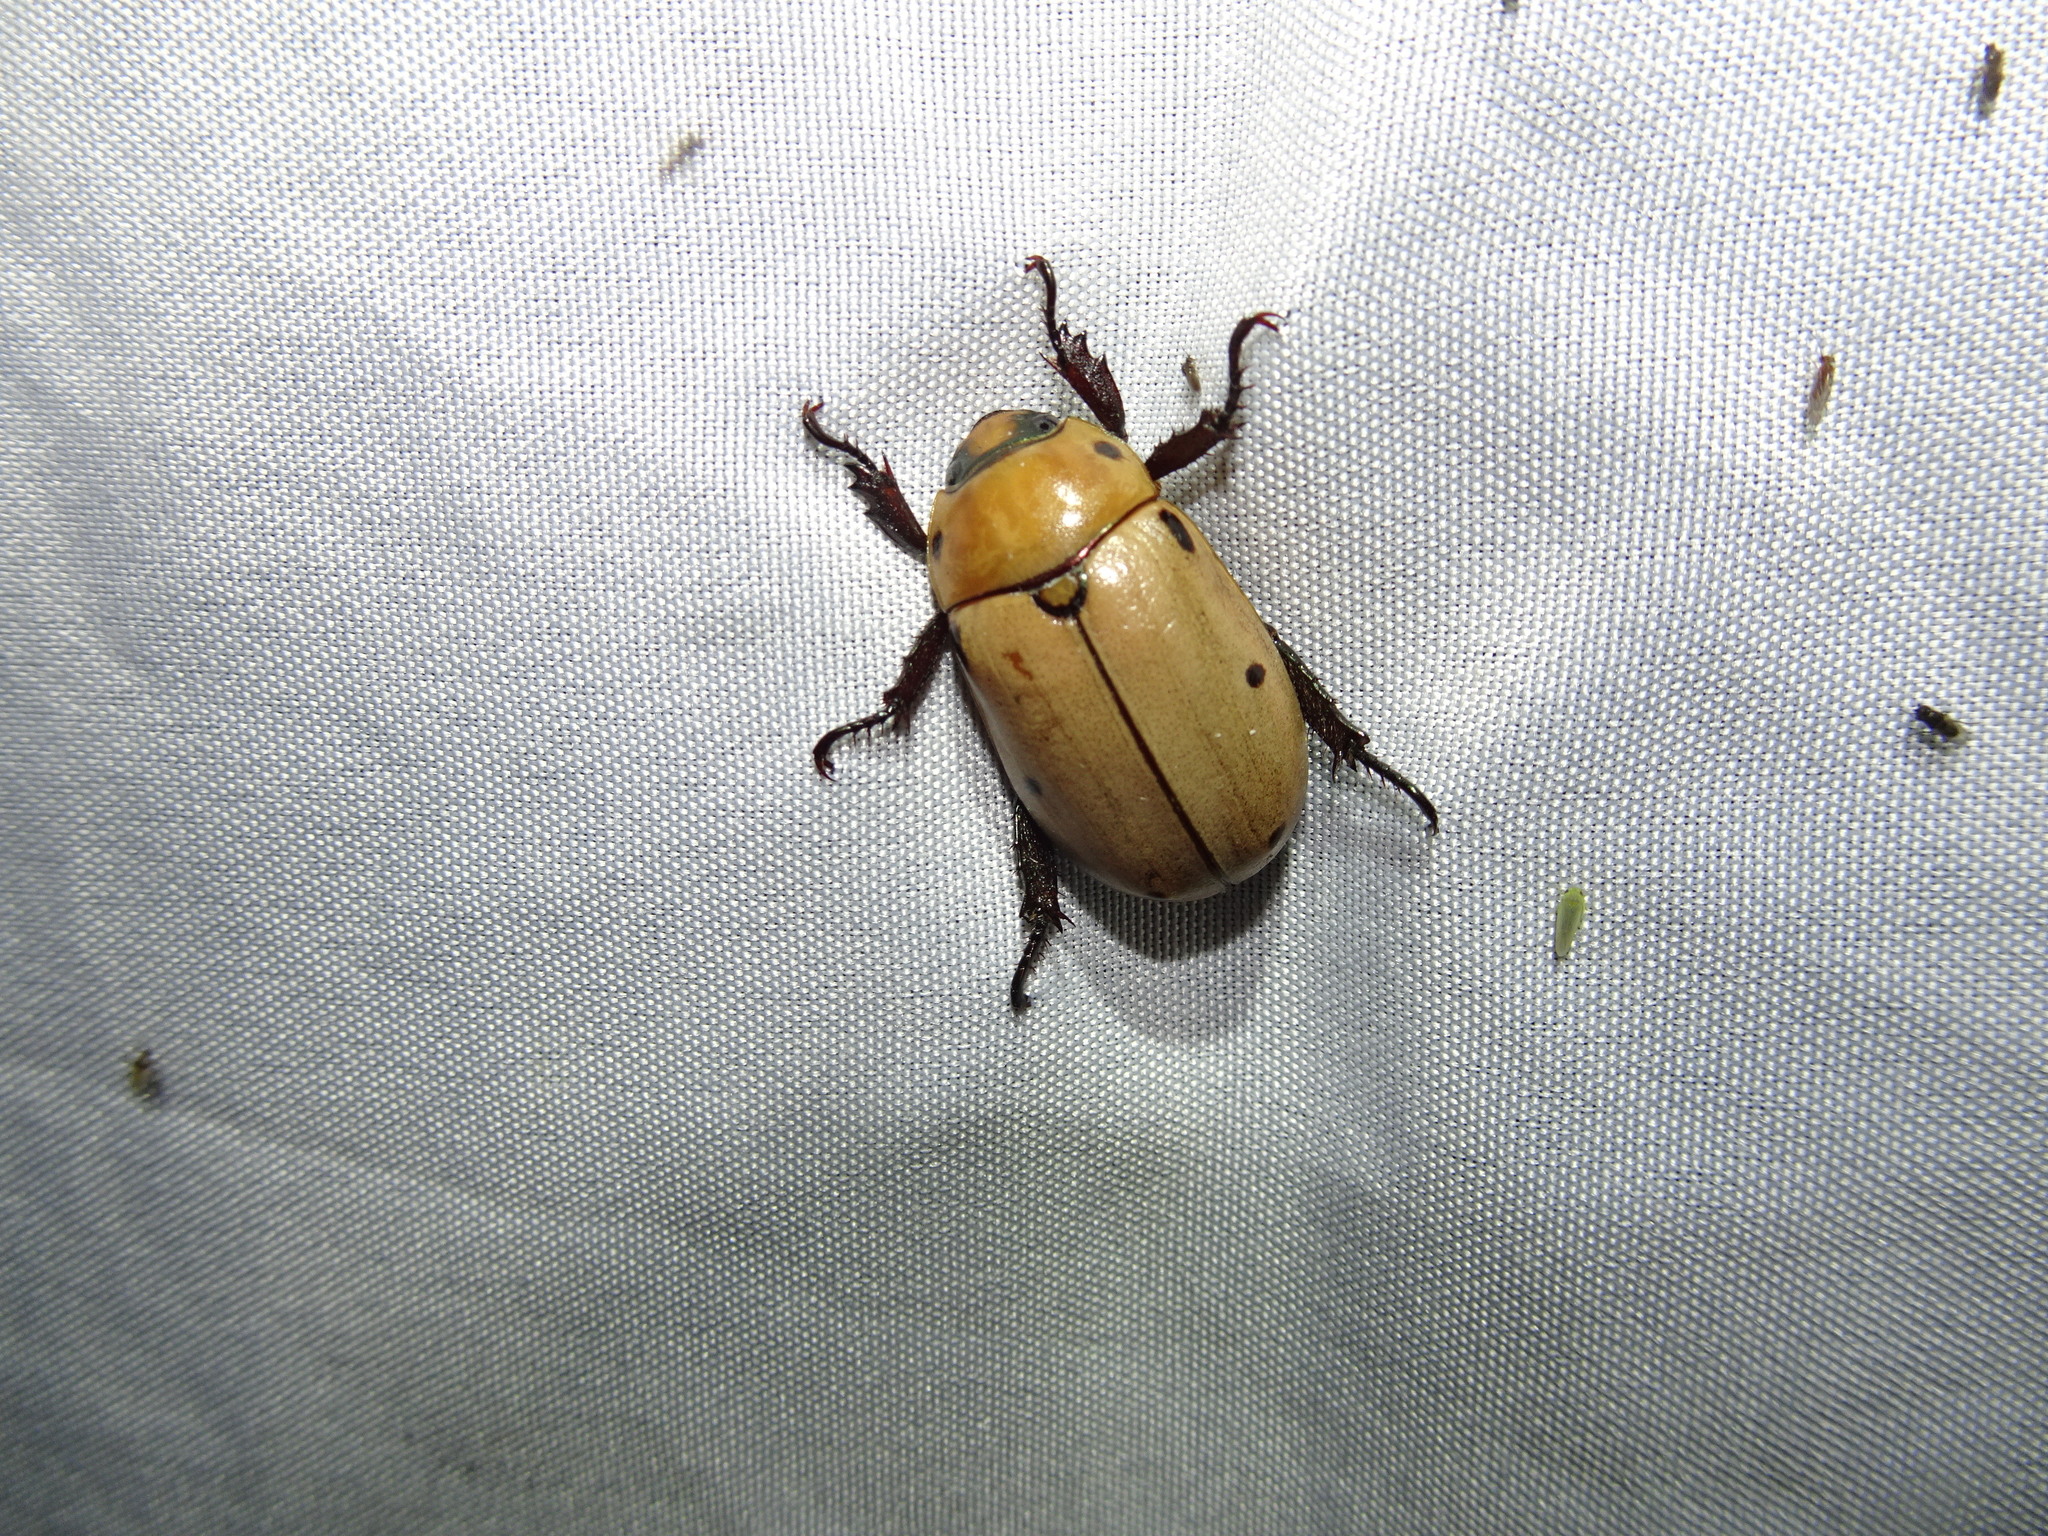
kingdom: Animalia
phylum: Arthropoda
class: Insecta
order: Coleoptera
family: Scarabaeidae
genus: Pelidnota
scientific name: Pelidnota punctata
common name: Grapevine beetle
